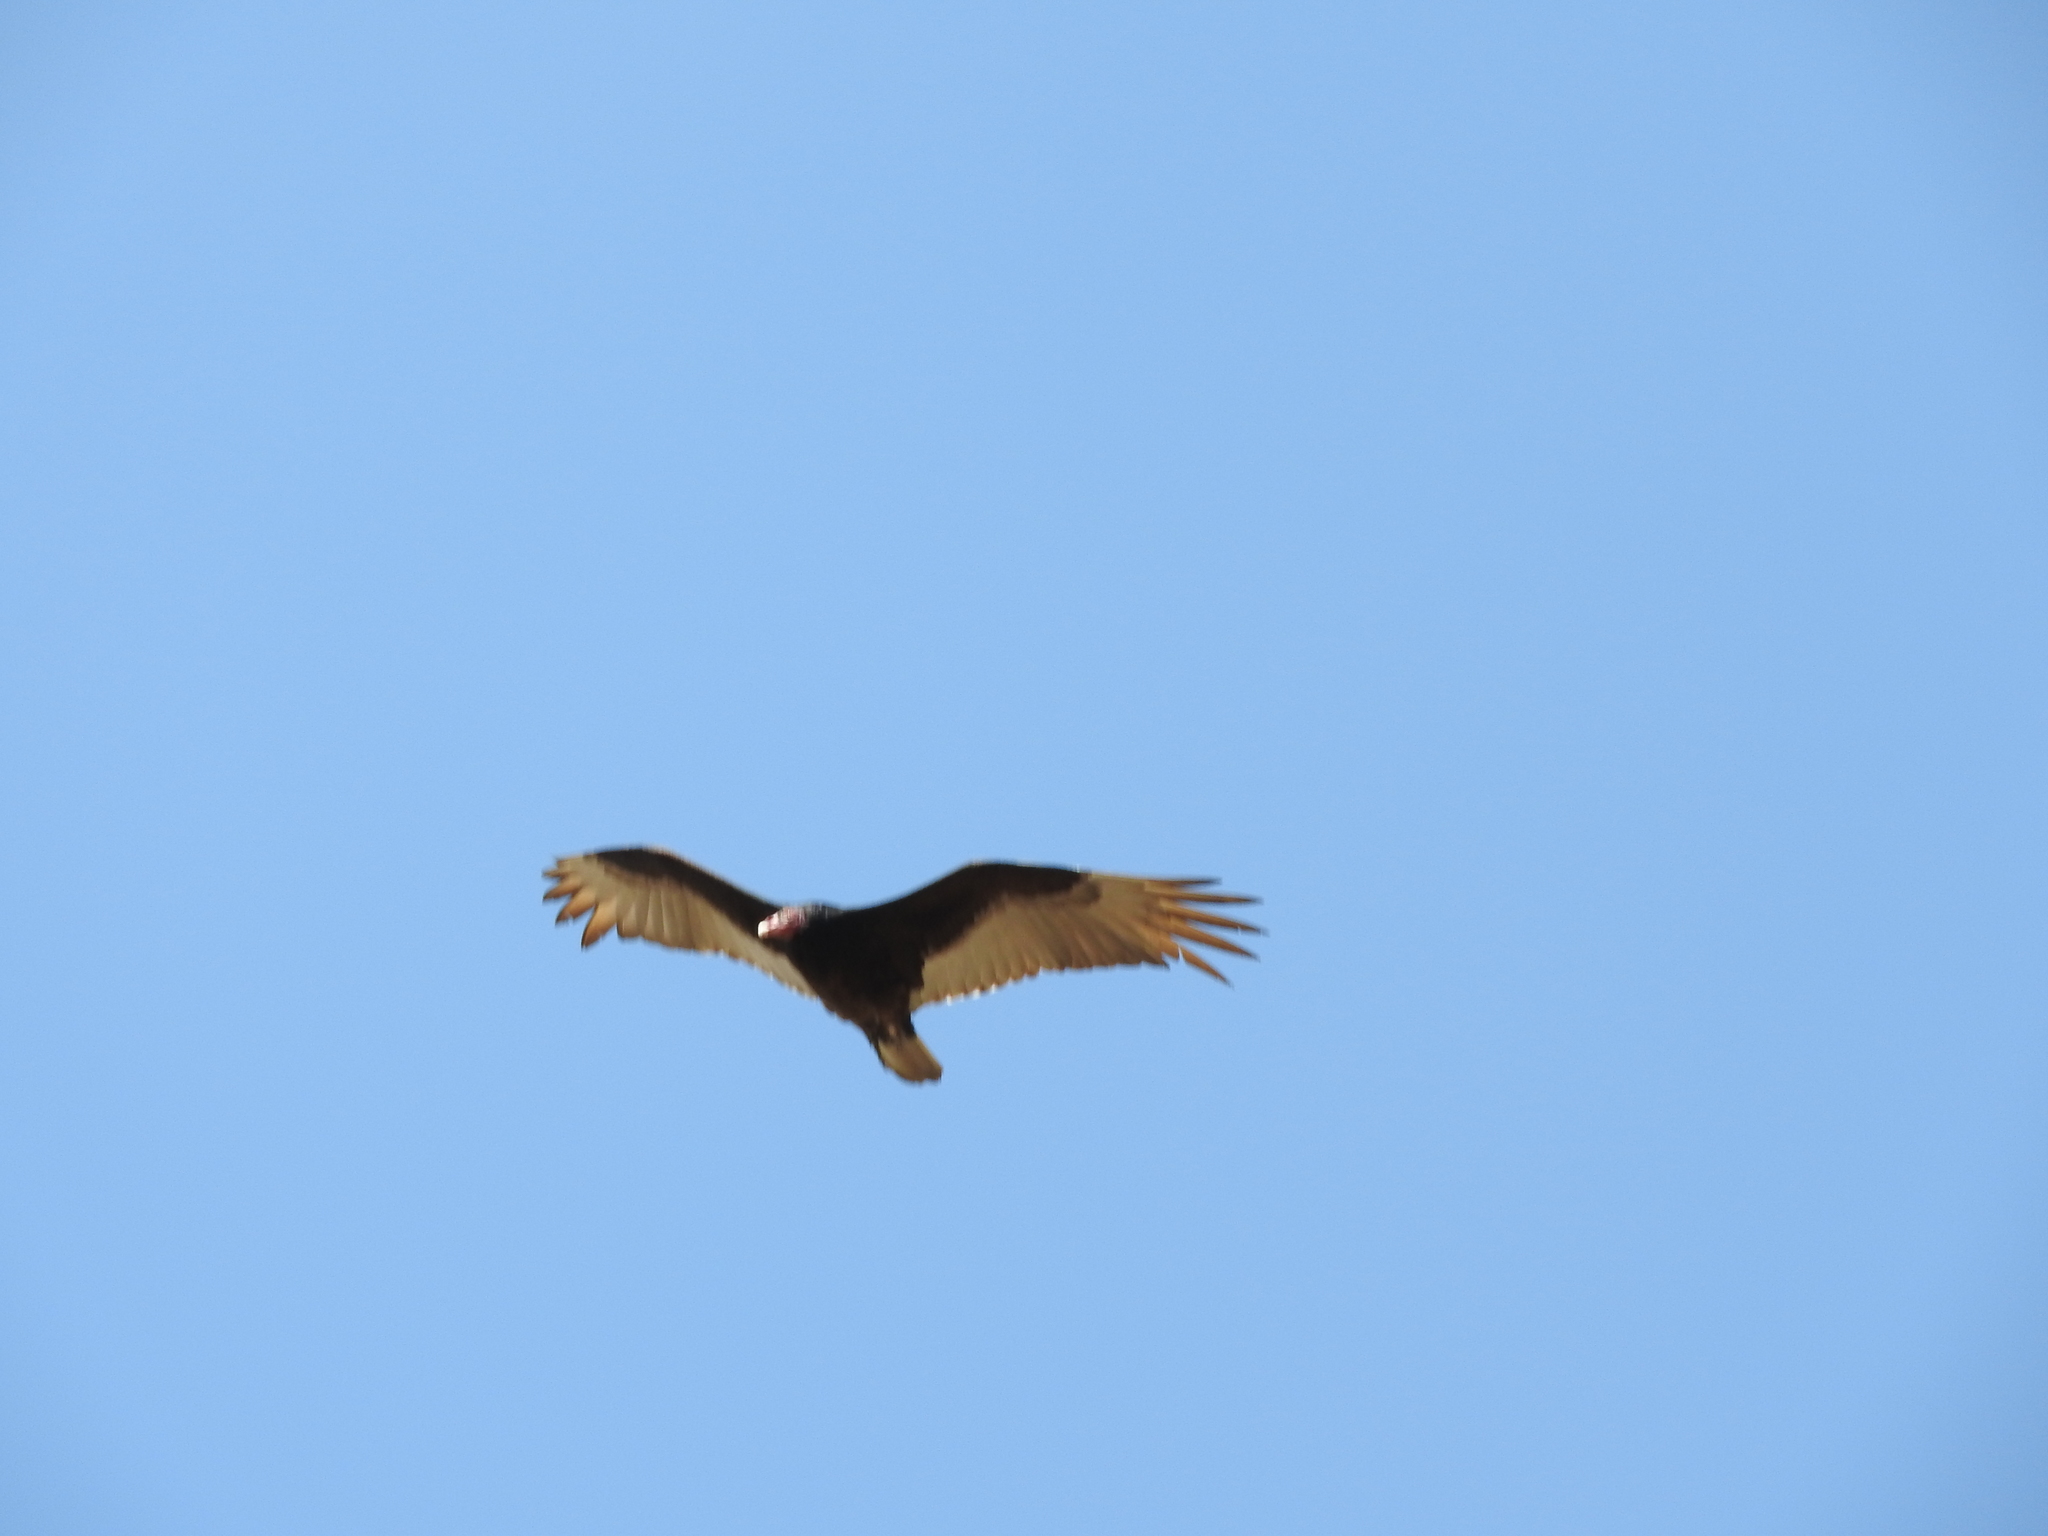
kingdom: Animalia
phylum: Chordata
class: Aves
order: Accipitriformes
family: Cathartidae
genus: Cathartes
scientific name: Cathartes aura
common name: Turkey vulture
